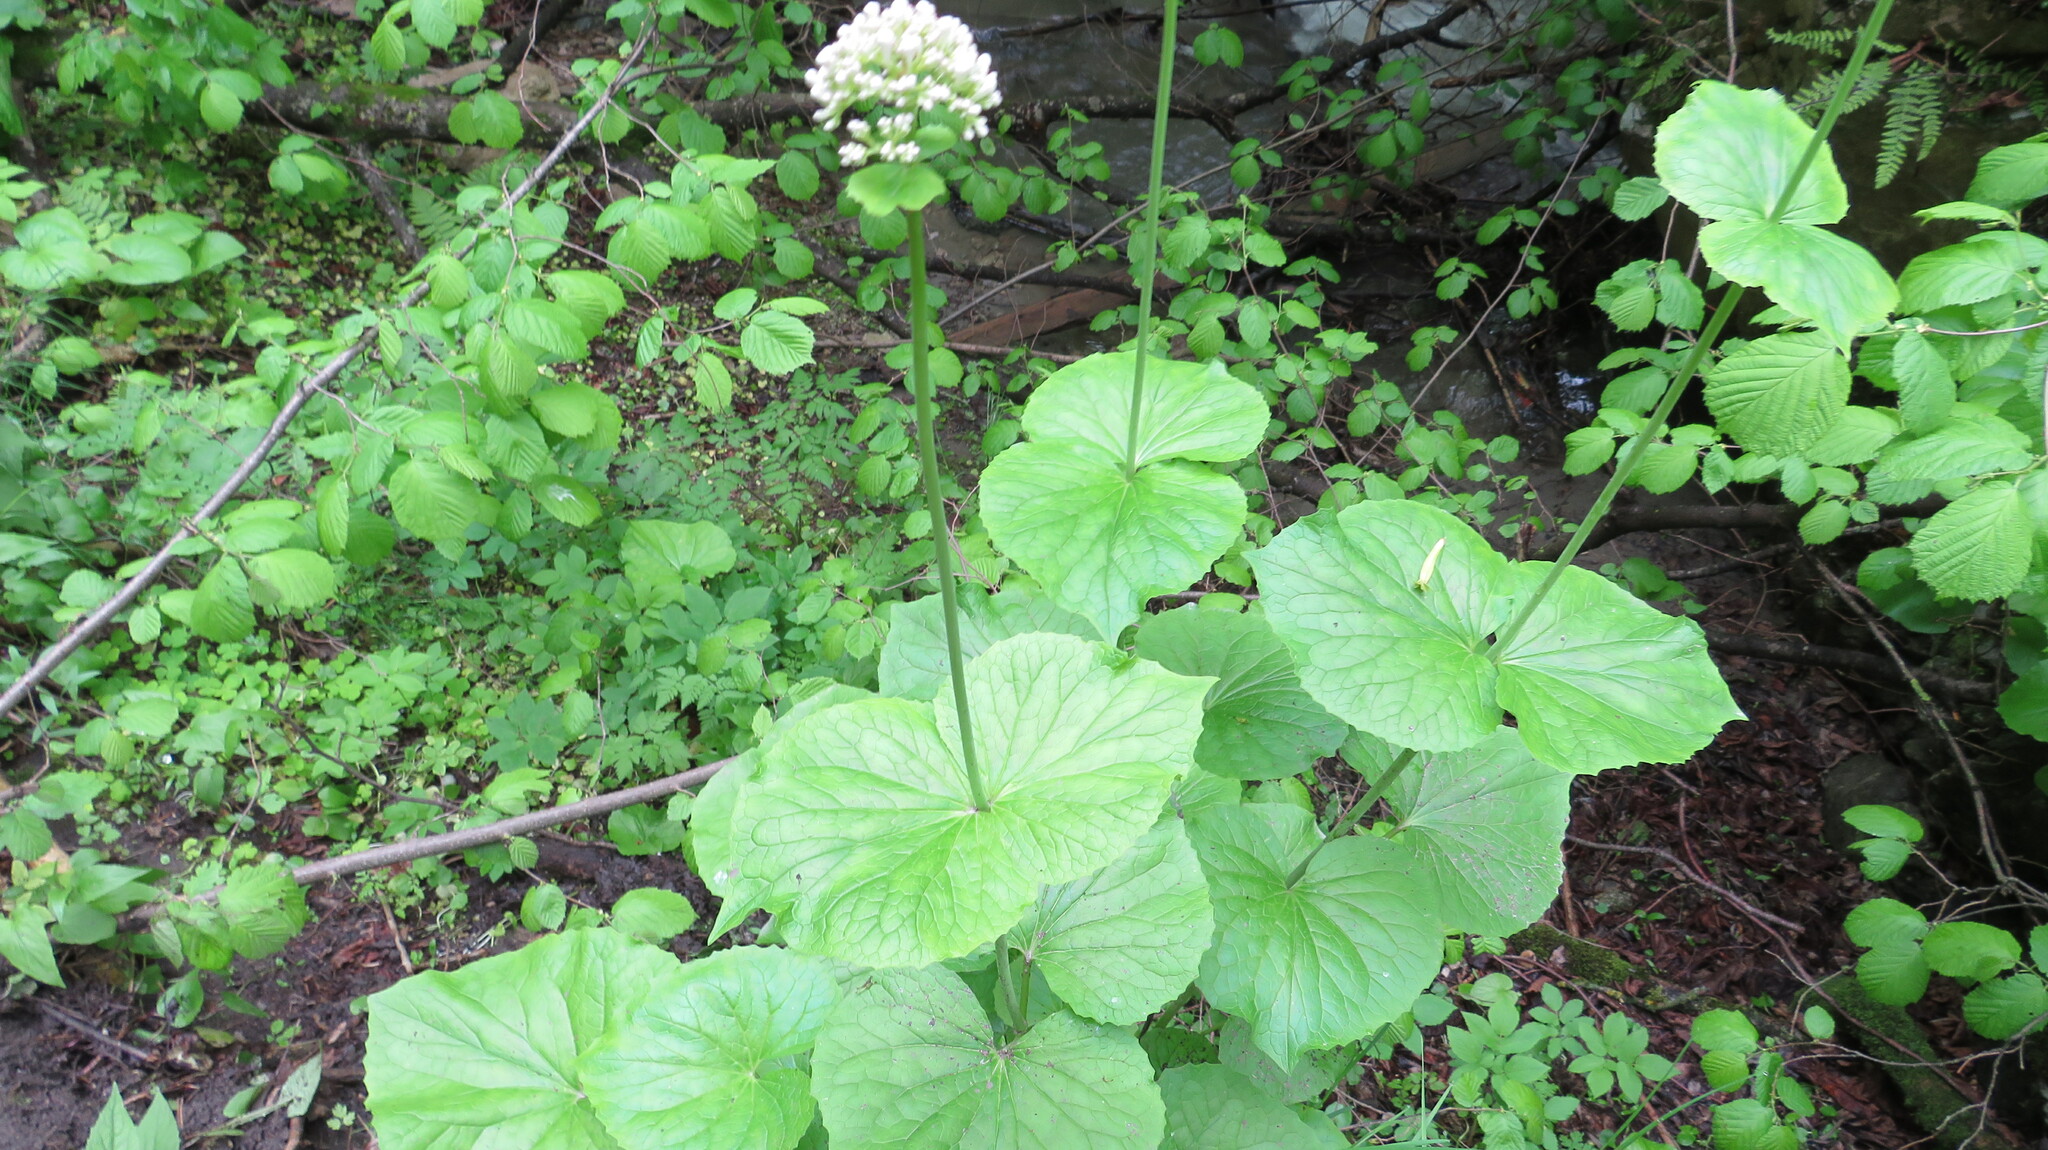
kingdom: Plantae
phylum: Tracheophyta
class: Magnoliopsida
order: Dipsacales
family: Caprifoliaceae
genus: Valeriana
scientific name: Valeriana alliariifolia
